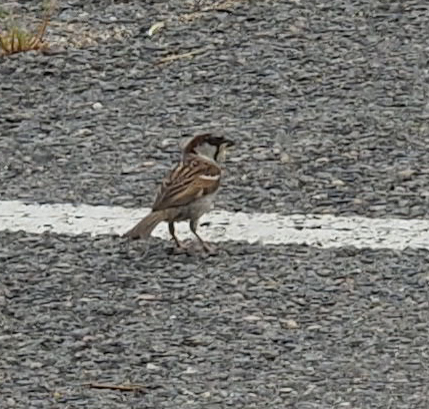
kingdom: Animalia
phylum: Chordata
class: Aves
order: Passeriformes
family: Passeridae
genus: Passer
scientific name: Passer domesticus
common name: House sparrow
